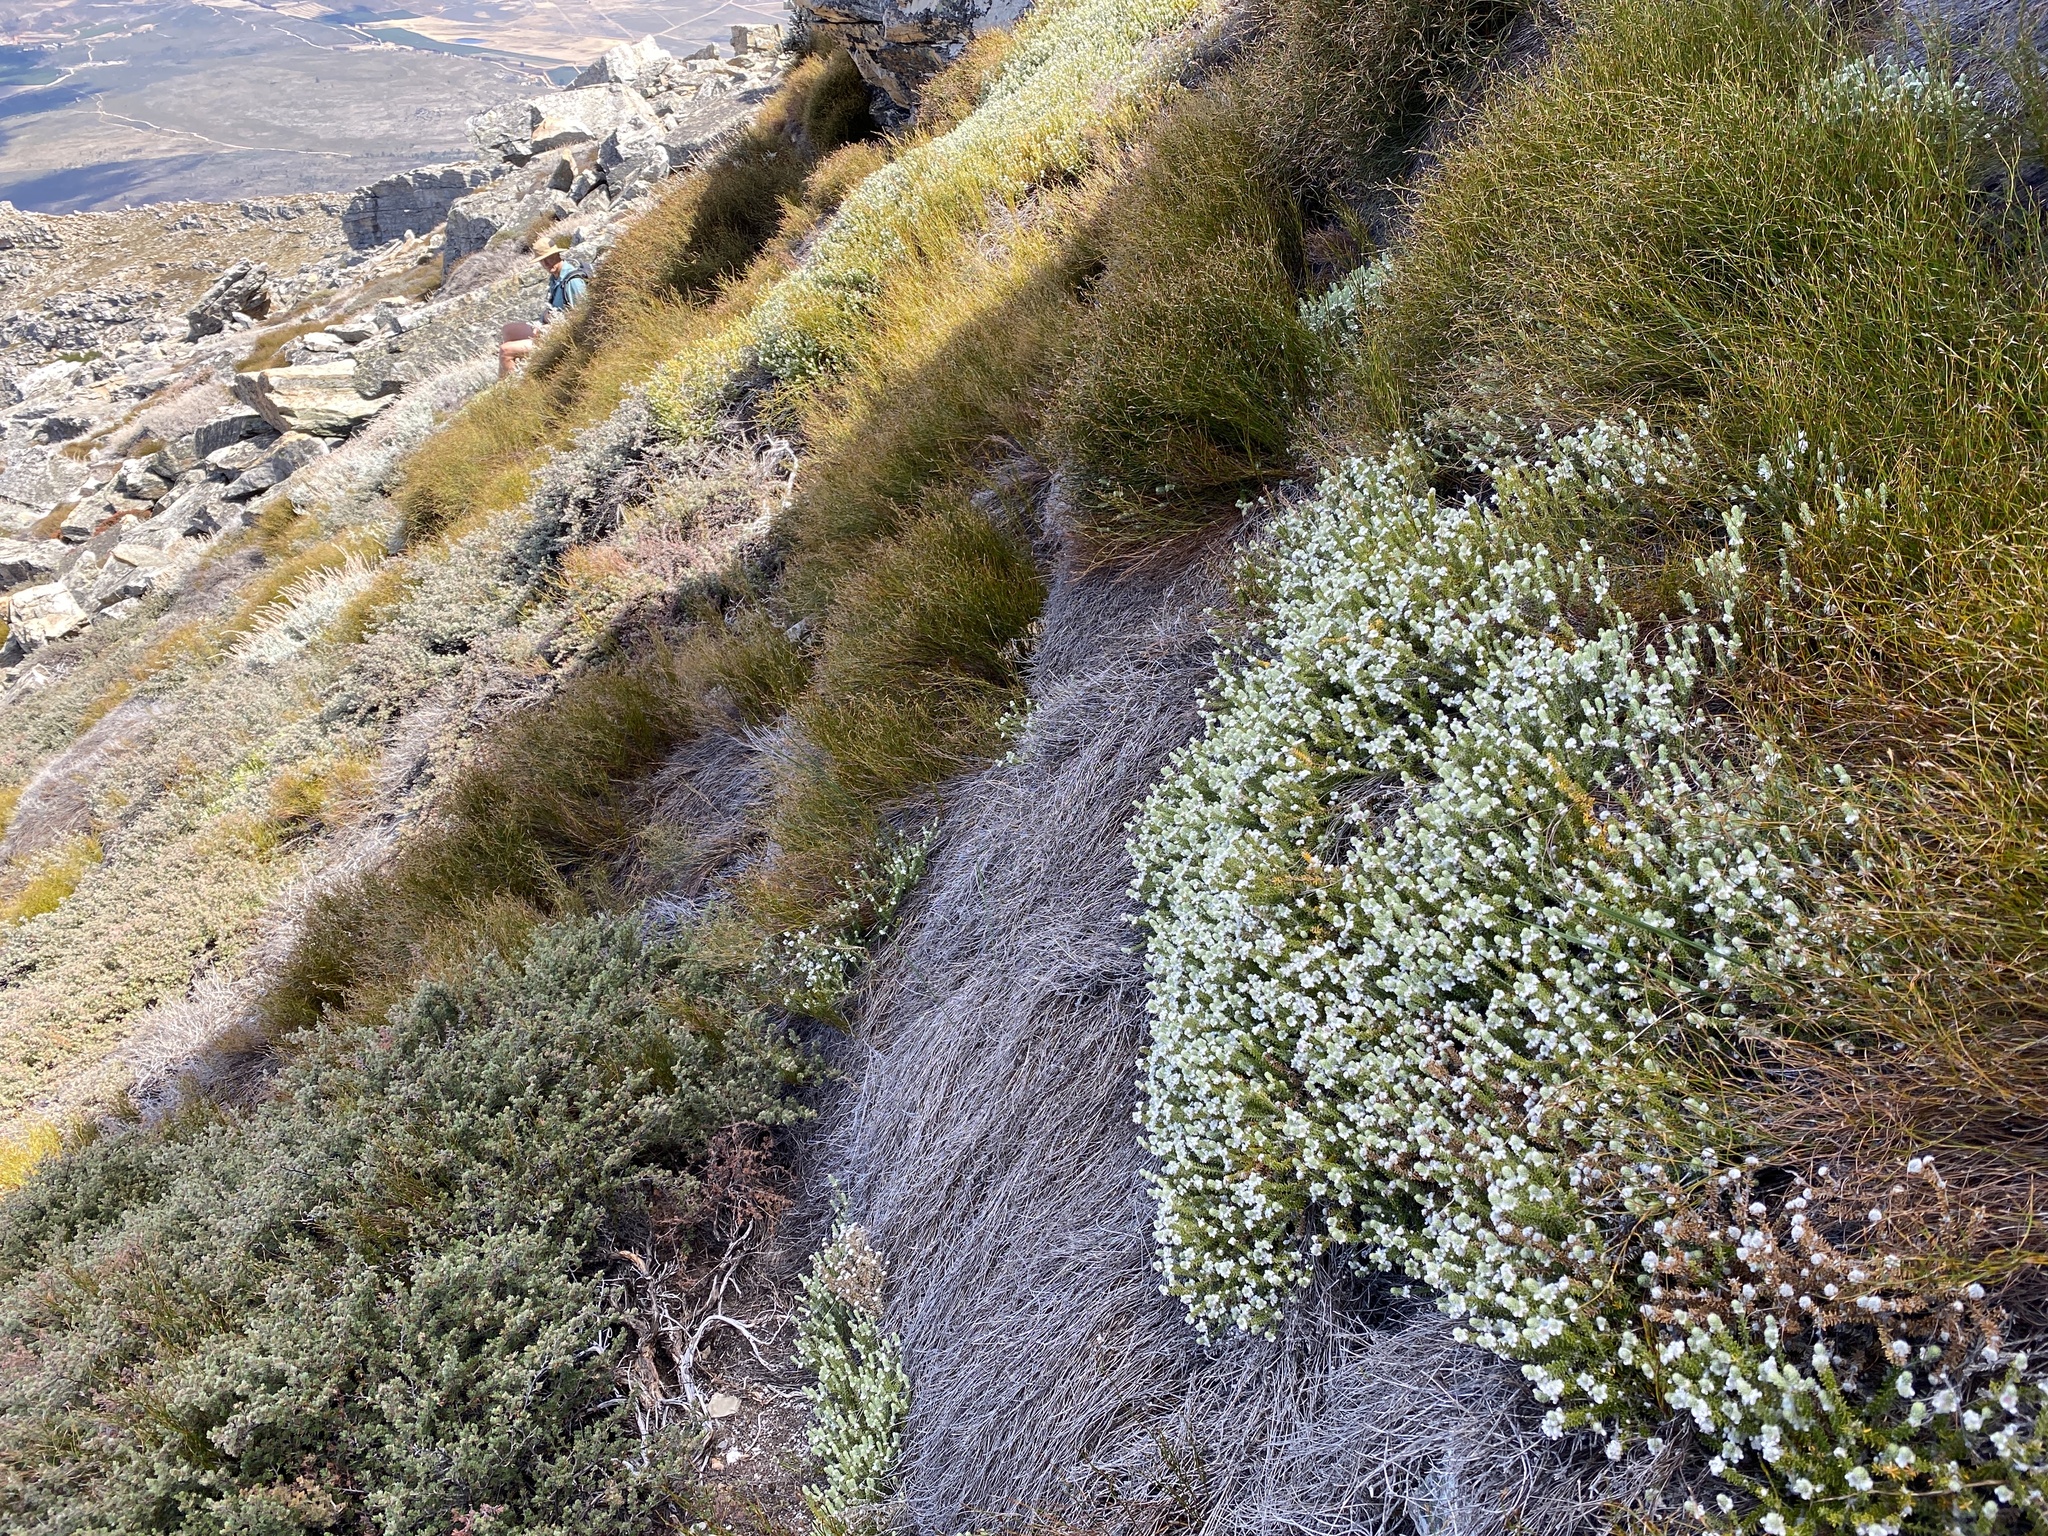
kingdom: Plantae
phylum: Tracheophyta
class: Magnoliopsida
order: Rosales
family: Rhamnaceae
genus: Phylica
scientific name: Phylica comptonii
